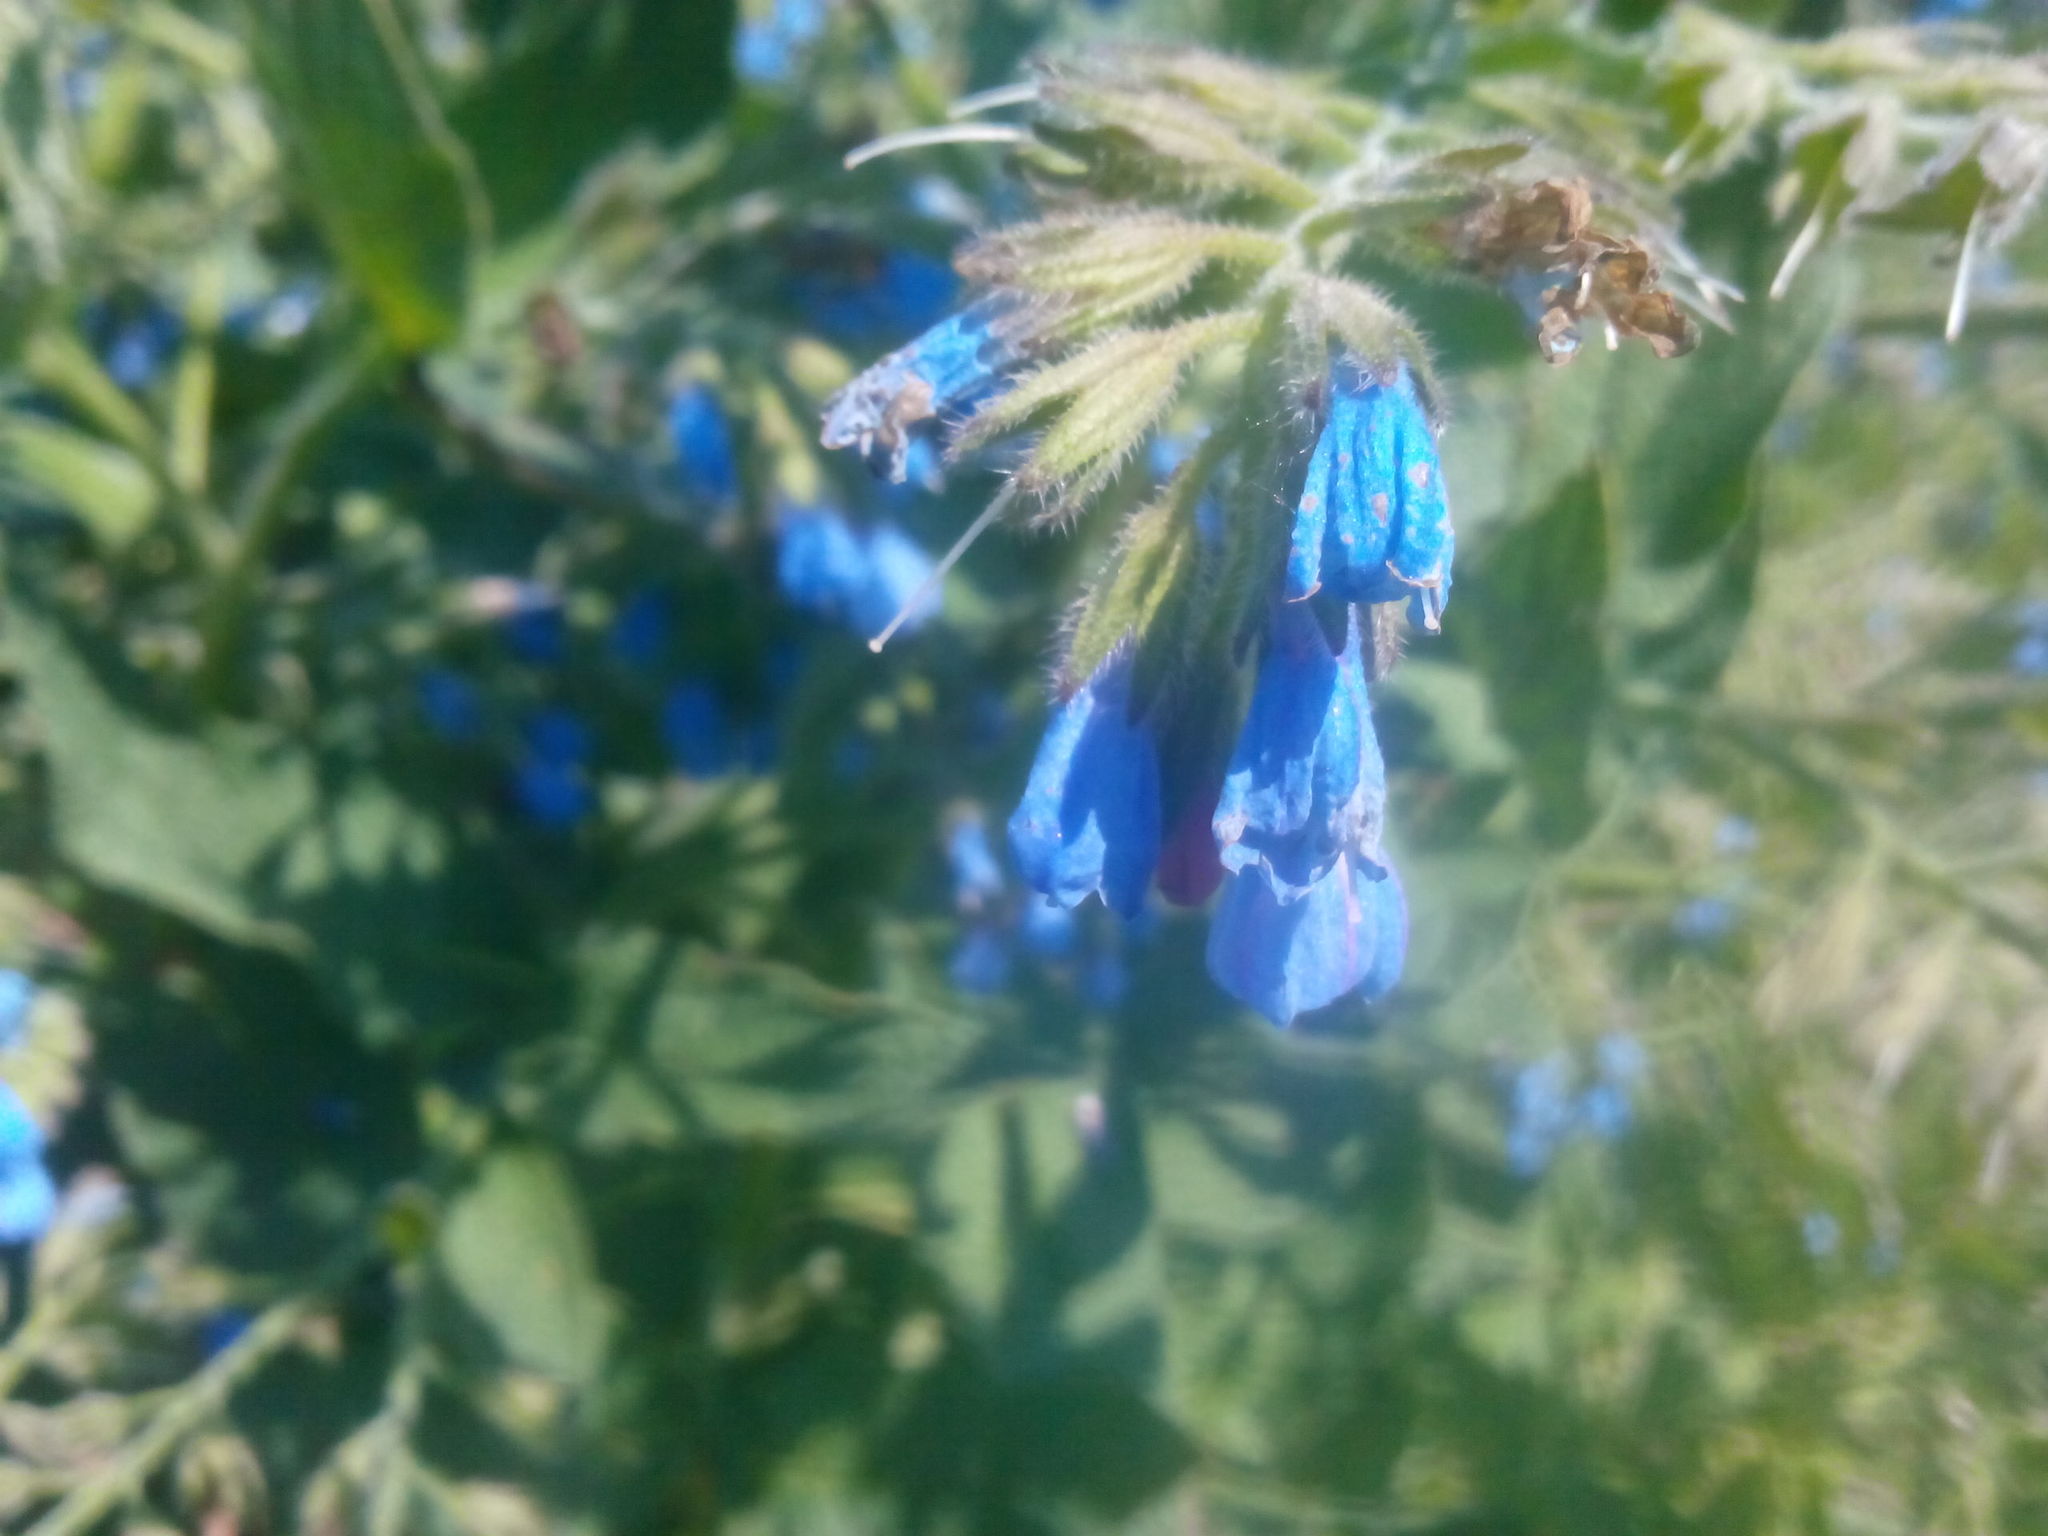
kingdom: Plantae
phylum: Tracheophyta
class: Magnoliopsida
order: Boraginales
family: Boraginaceae
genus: Symphytum
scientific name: Symphytum caucasicum
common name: Caucasian comfrey
